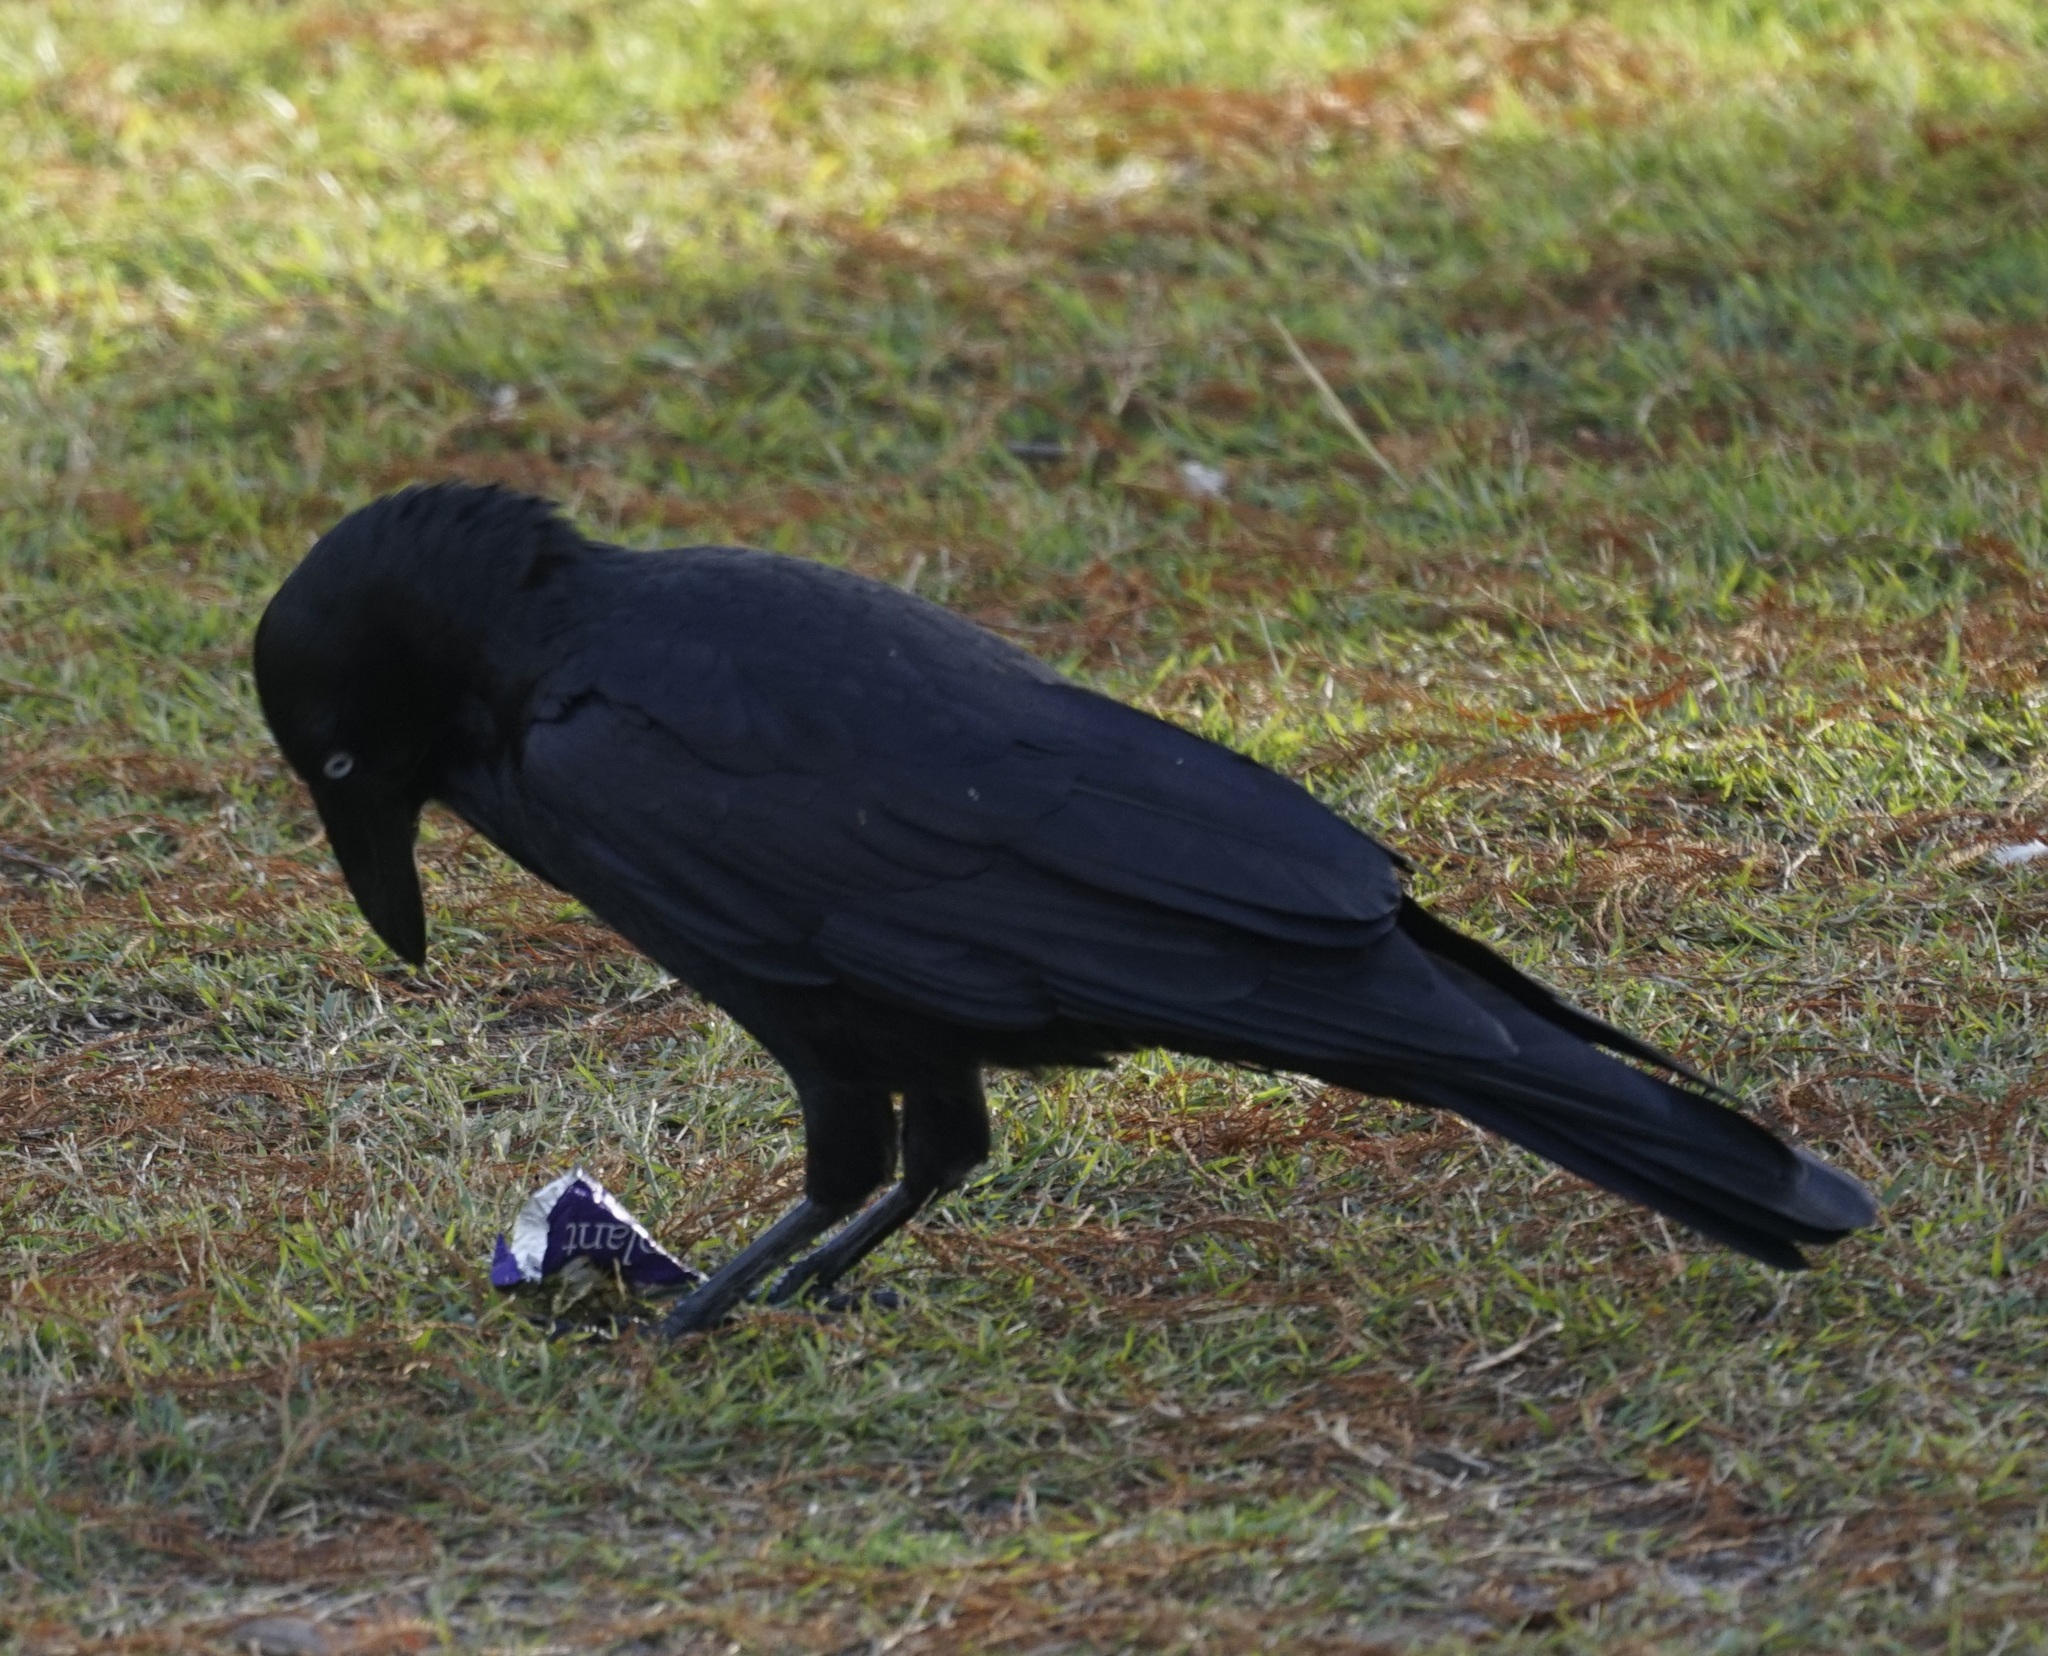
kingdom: Animalia
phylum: Chordata
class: Aves
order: Passeriformes
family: Corvidae
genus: Corvus
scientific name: Corvus coronoides
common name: Australian raven
